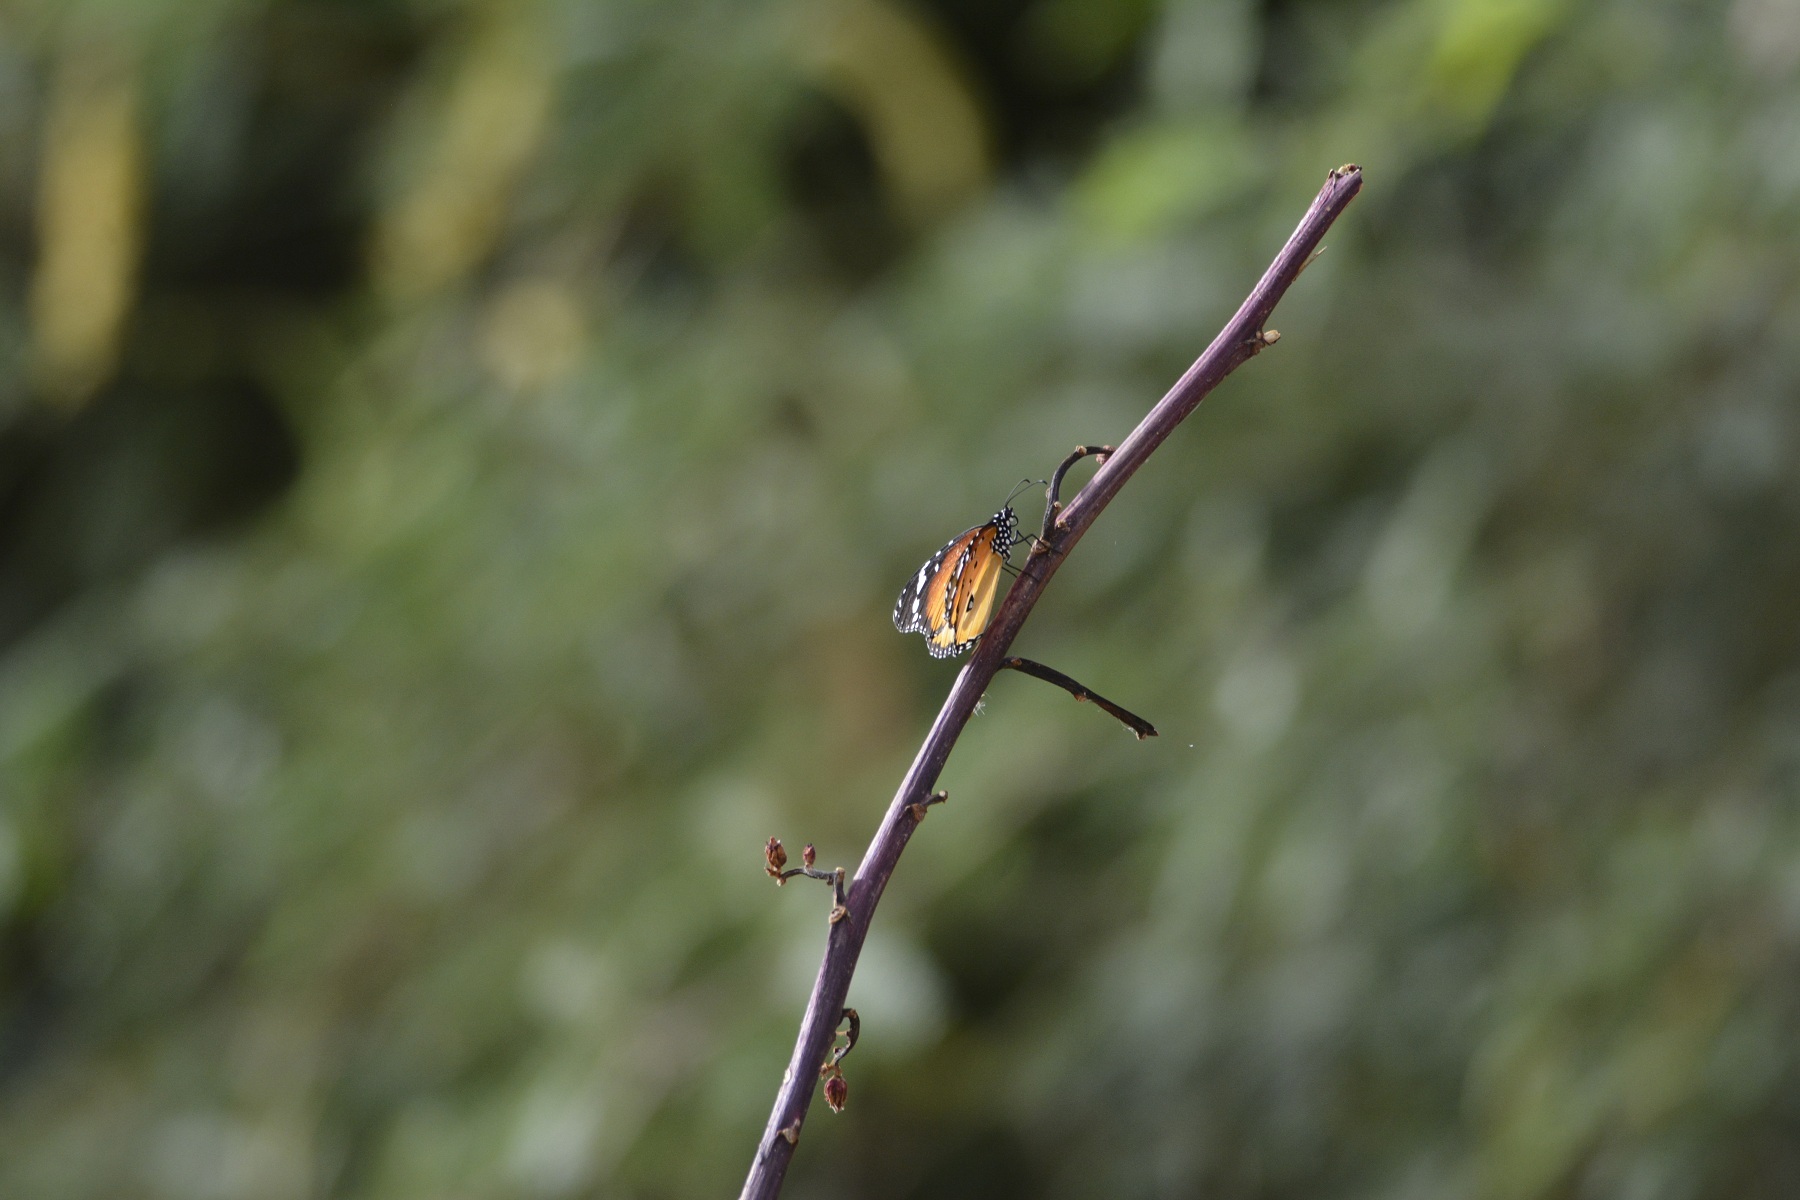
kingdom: Animalia
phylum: Arthropoda
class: Insecta
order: Lepidoptera
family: Nymphalidae
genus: Danaus
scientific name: Danaus chrysippus
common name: Plain tiger
